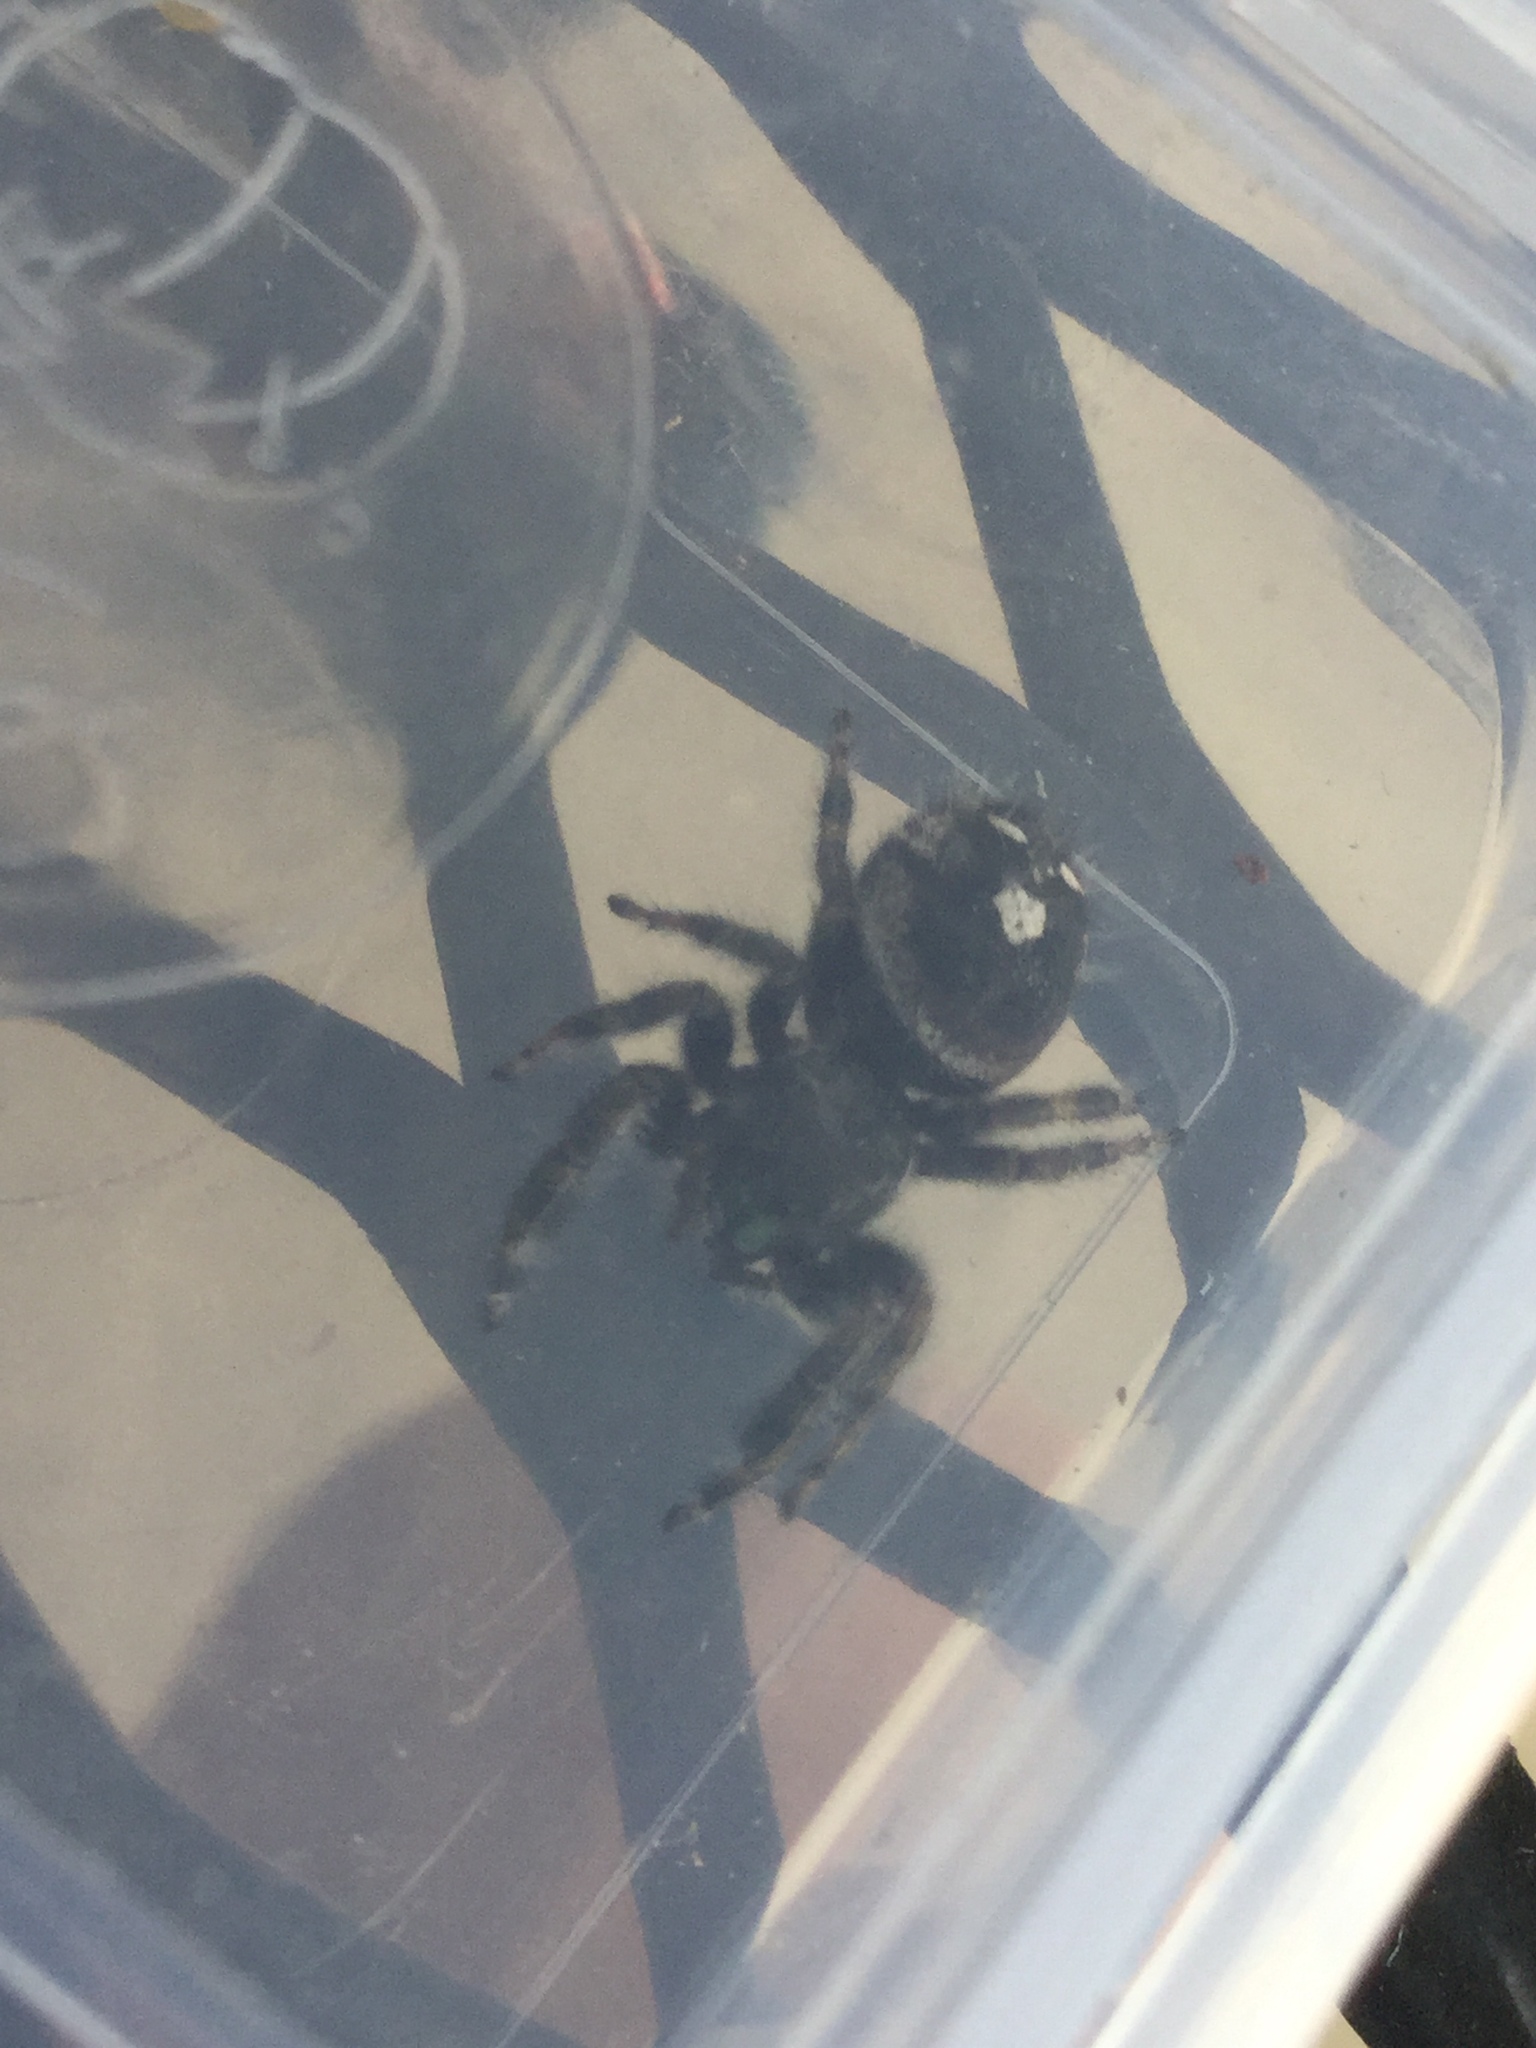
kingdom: Animalia
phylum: Arthropoda
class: Arachnida
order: Araneae
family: Salticidae
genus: Phidippus
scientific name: Phidippus audax
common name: Bold jumper
